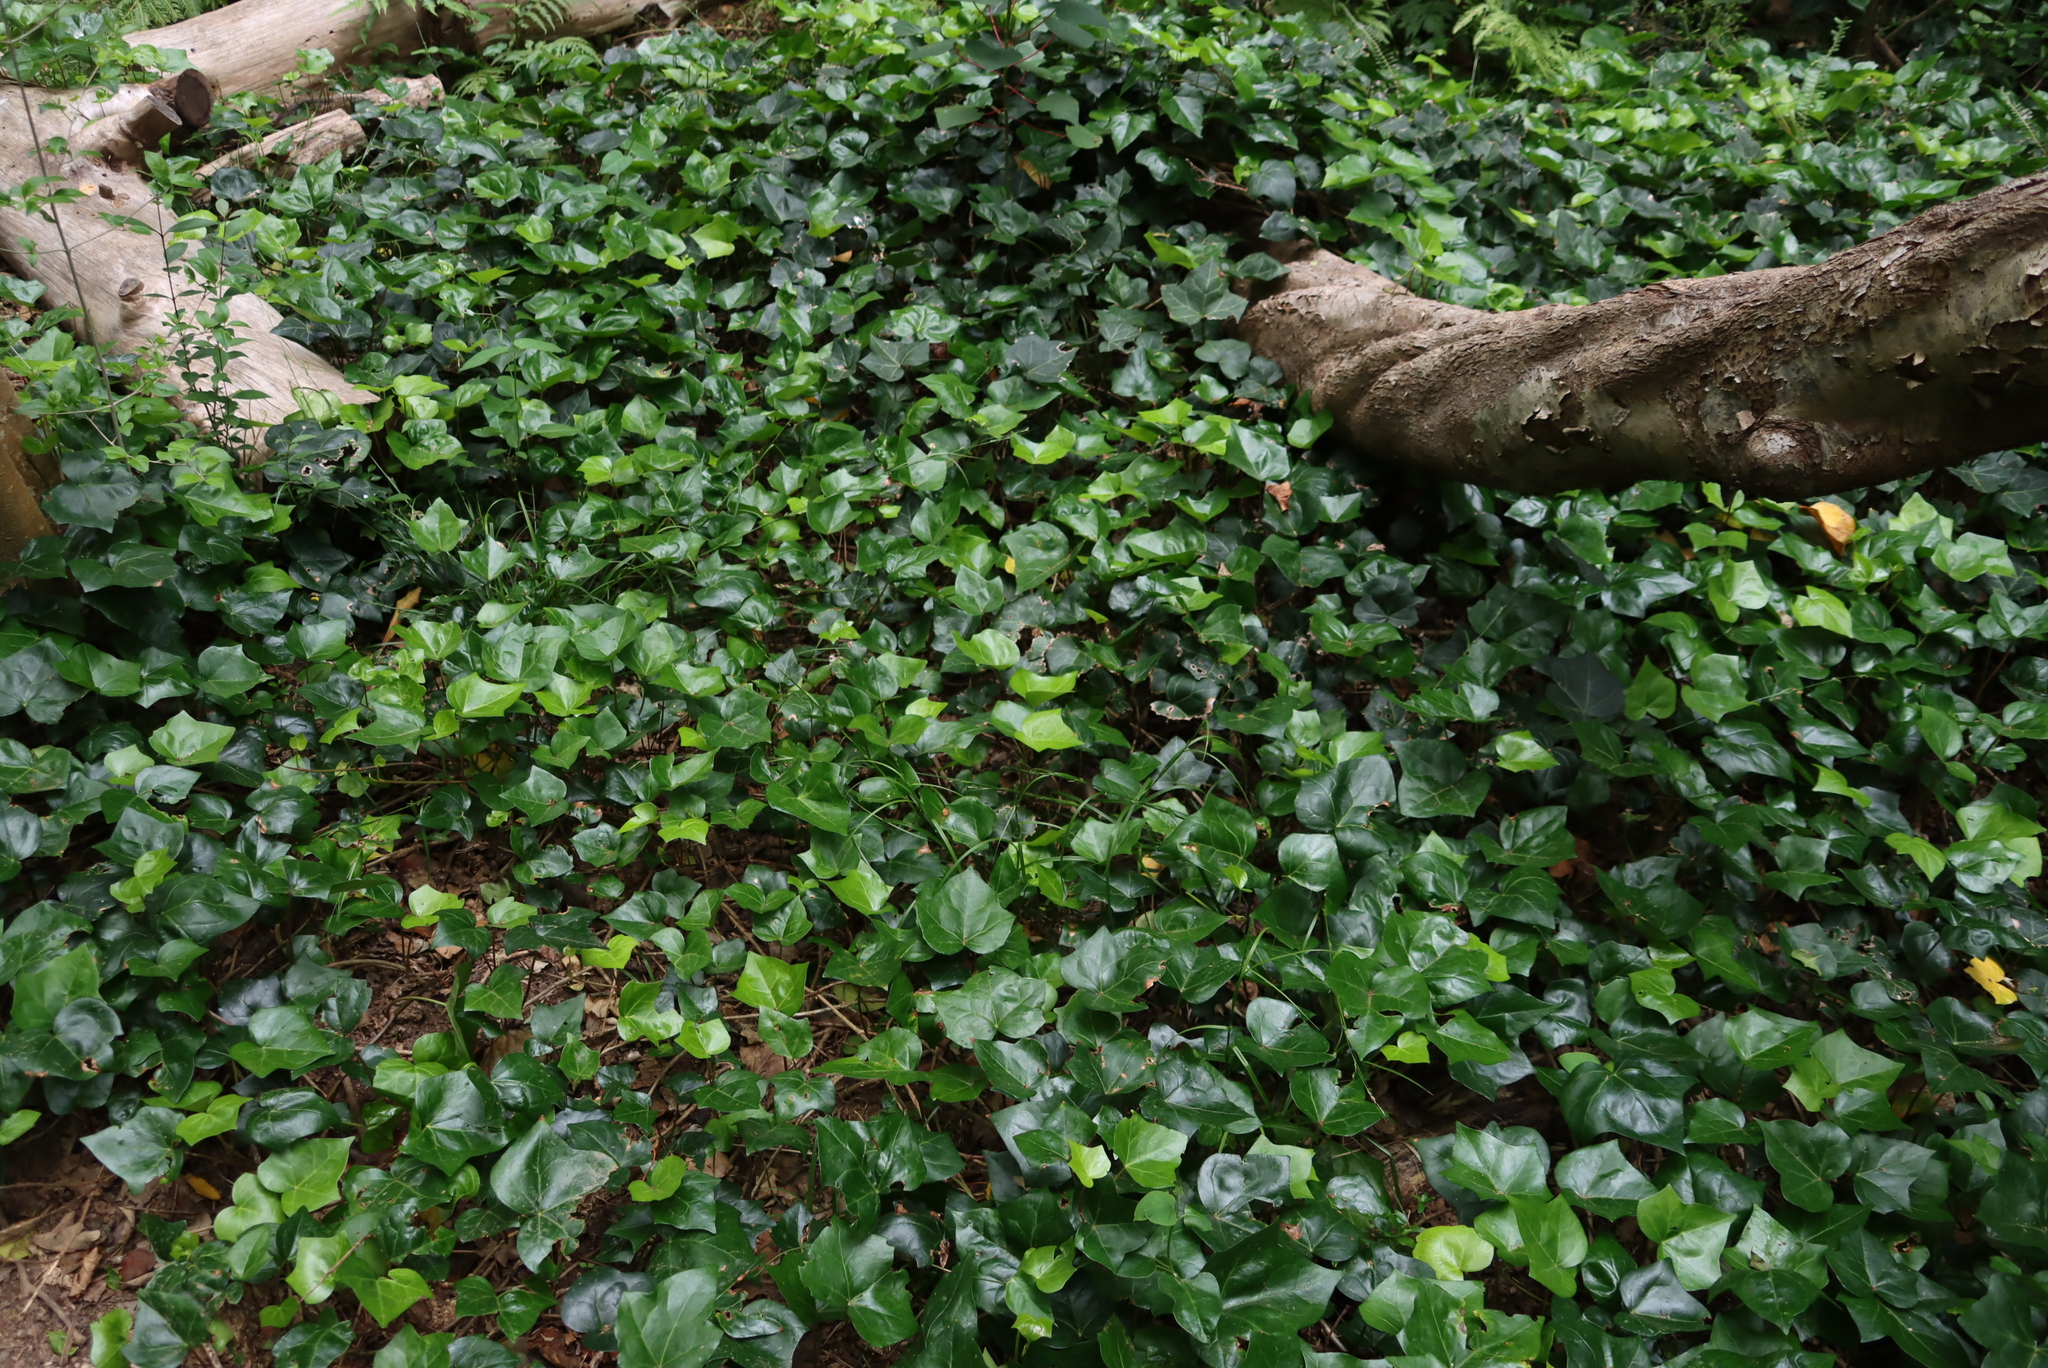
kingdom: Plantae
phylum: Tracheophyta
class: Magnoliopsida
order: Apiales
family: Araliaceae
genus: Hedera
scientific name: Hedera canariensis
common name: Madeira ivy
